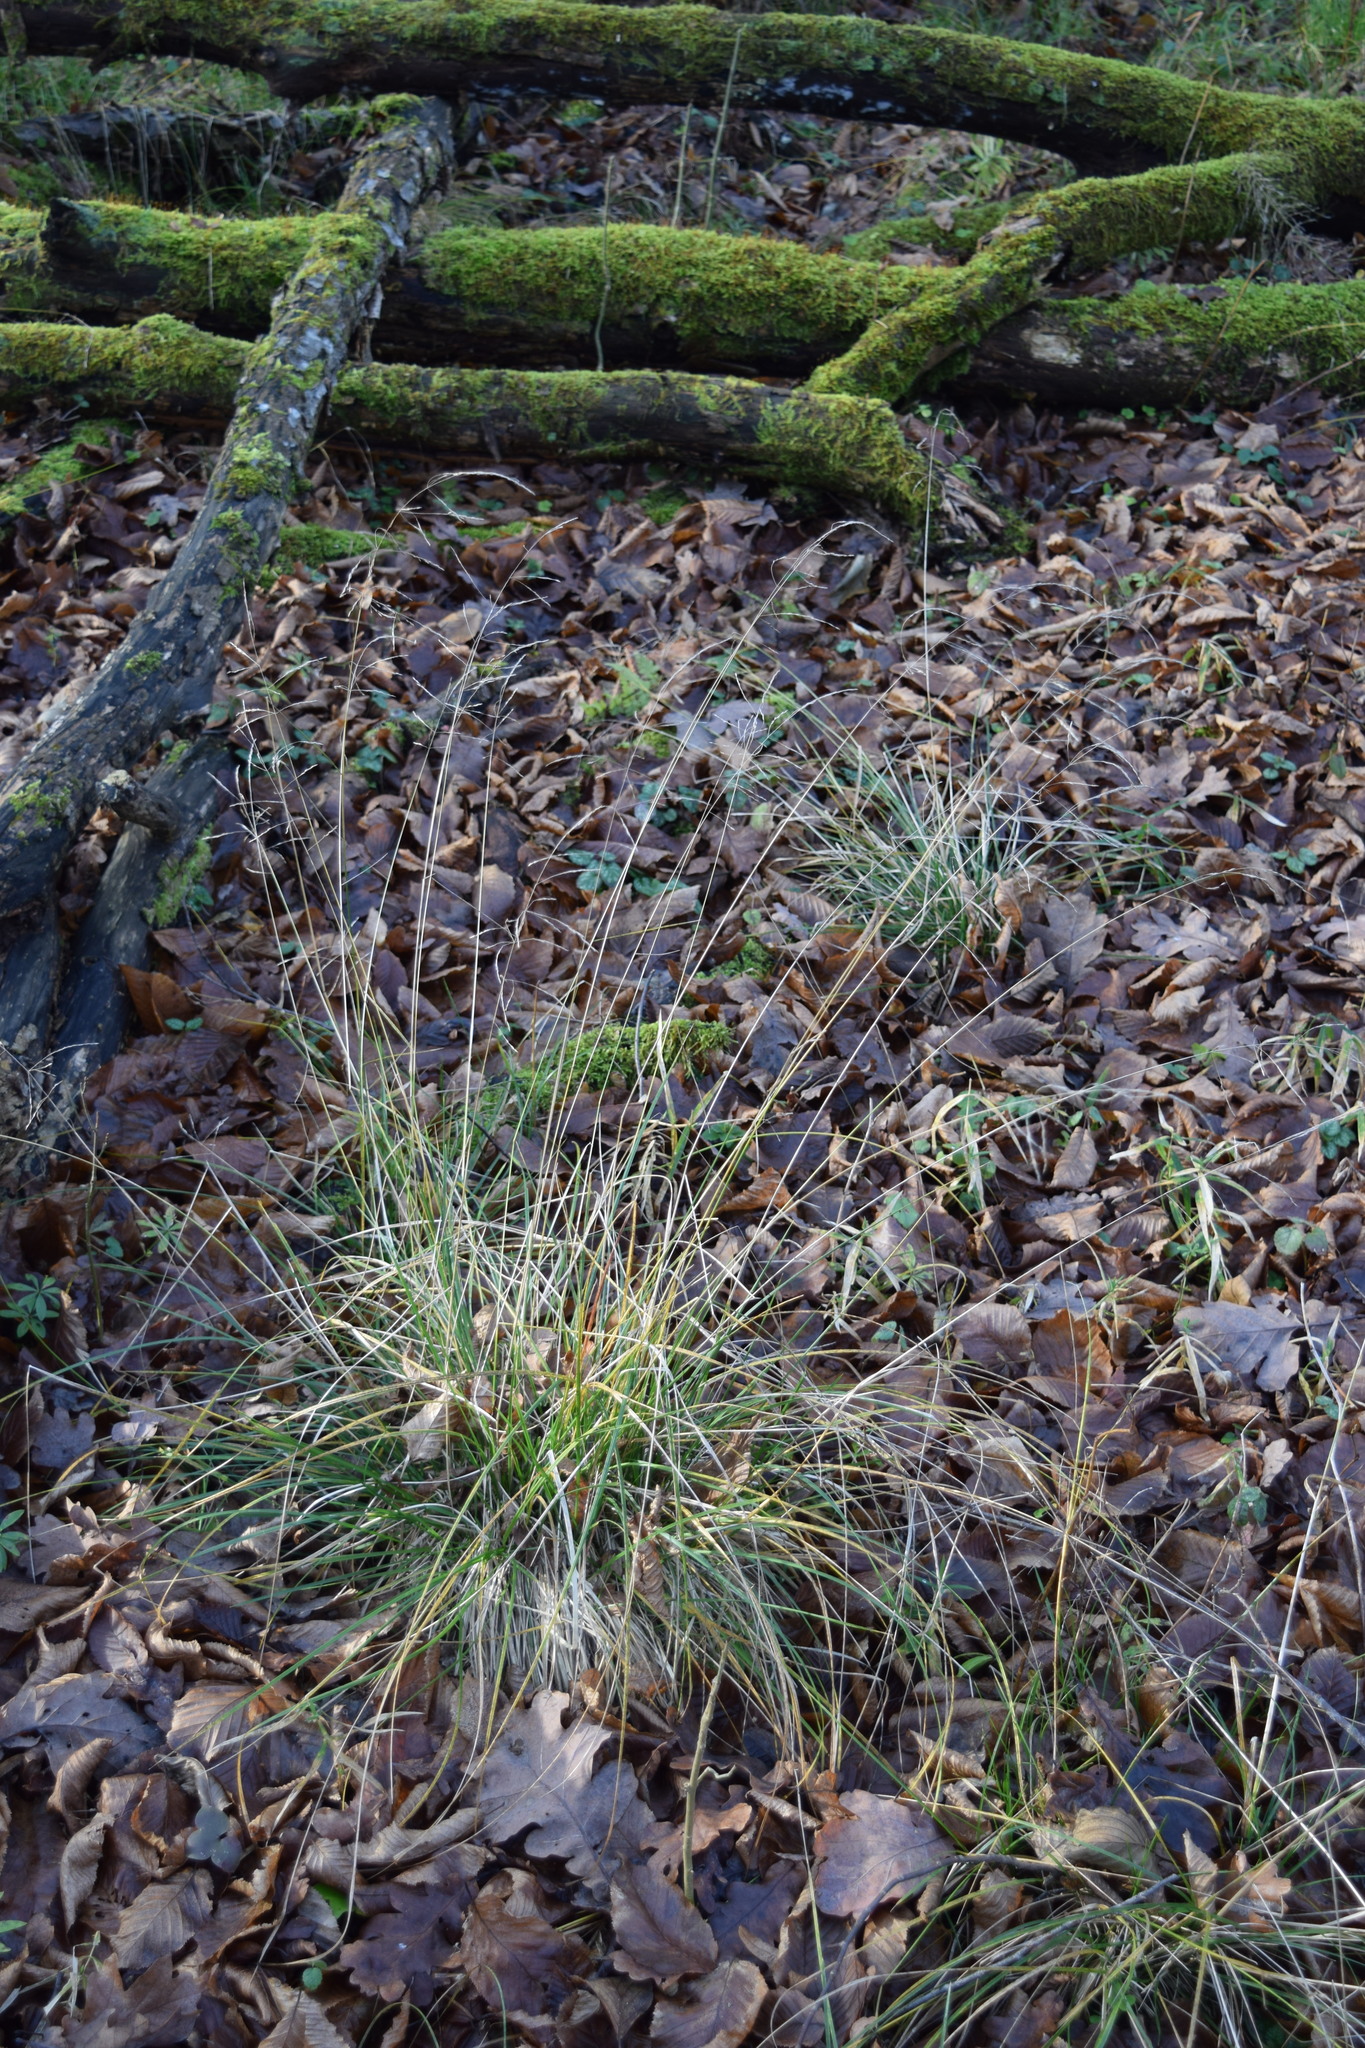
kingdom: Plantae
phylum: Tracheophyta
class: Liliopsida
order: Poales
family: Poaceae
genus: Deschampsia
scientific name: Deschampsia cespitosa
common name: Tufted hair-grass
